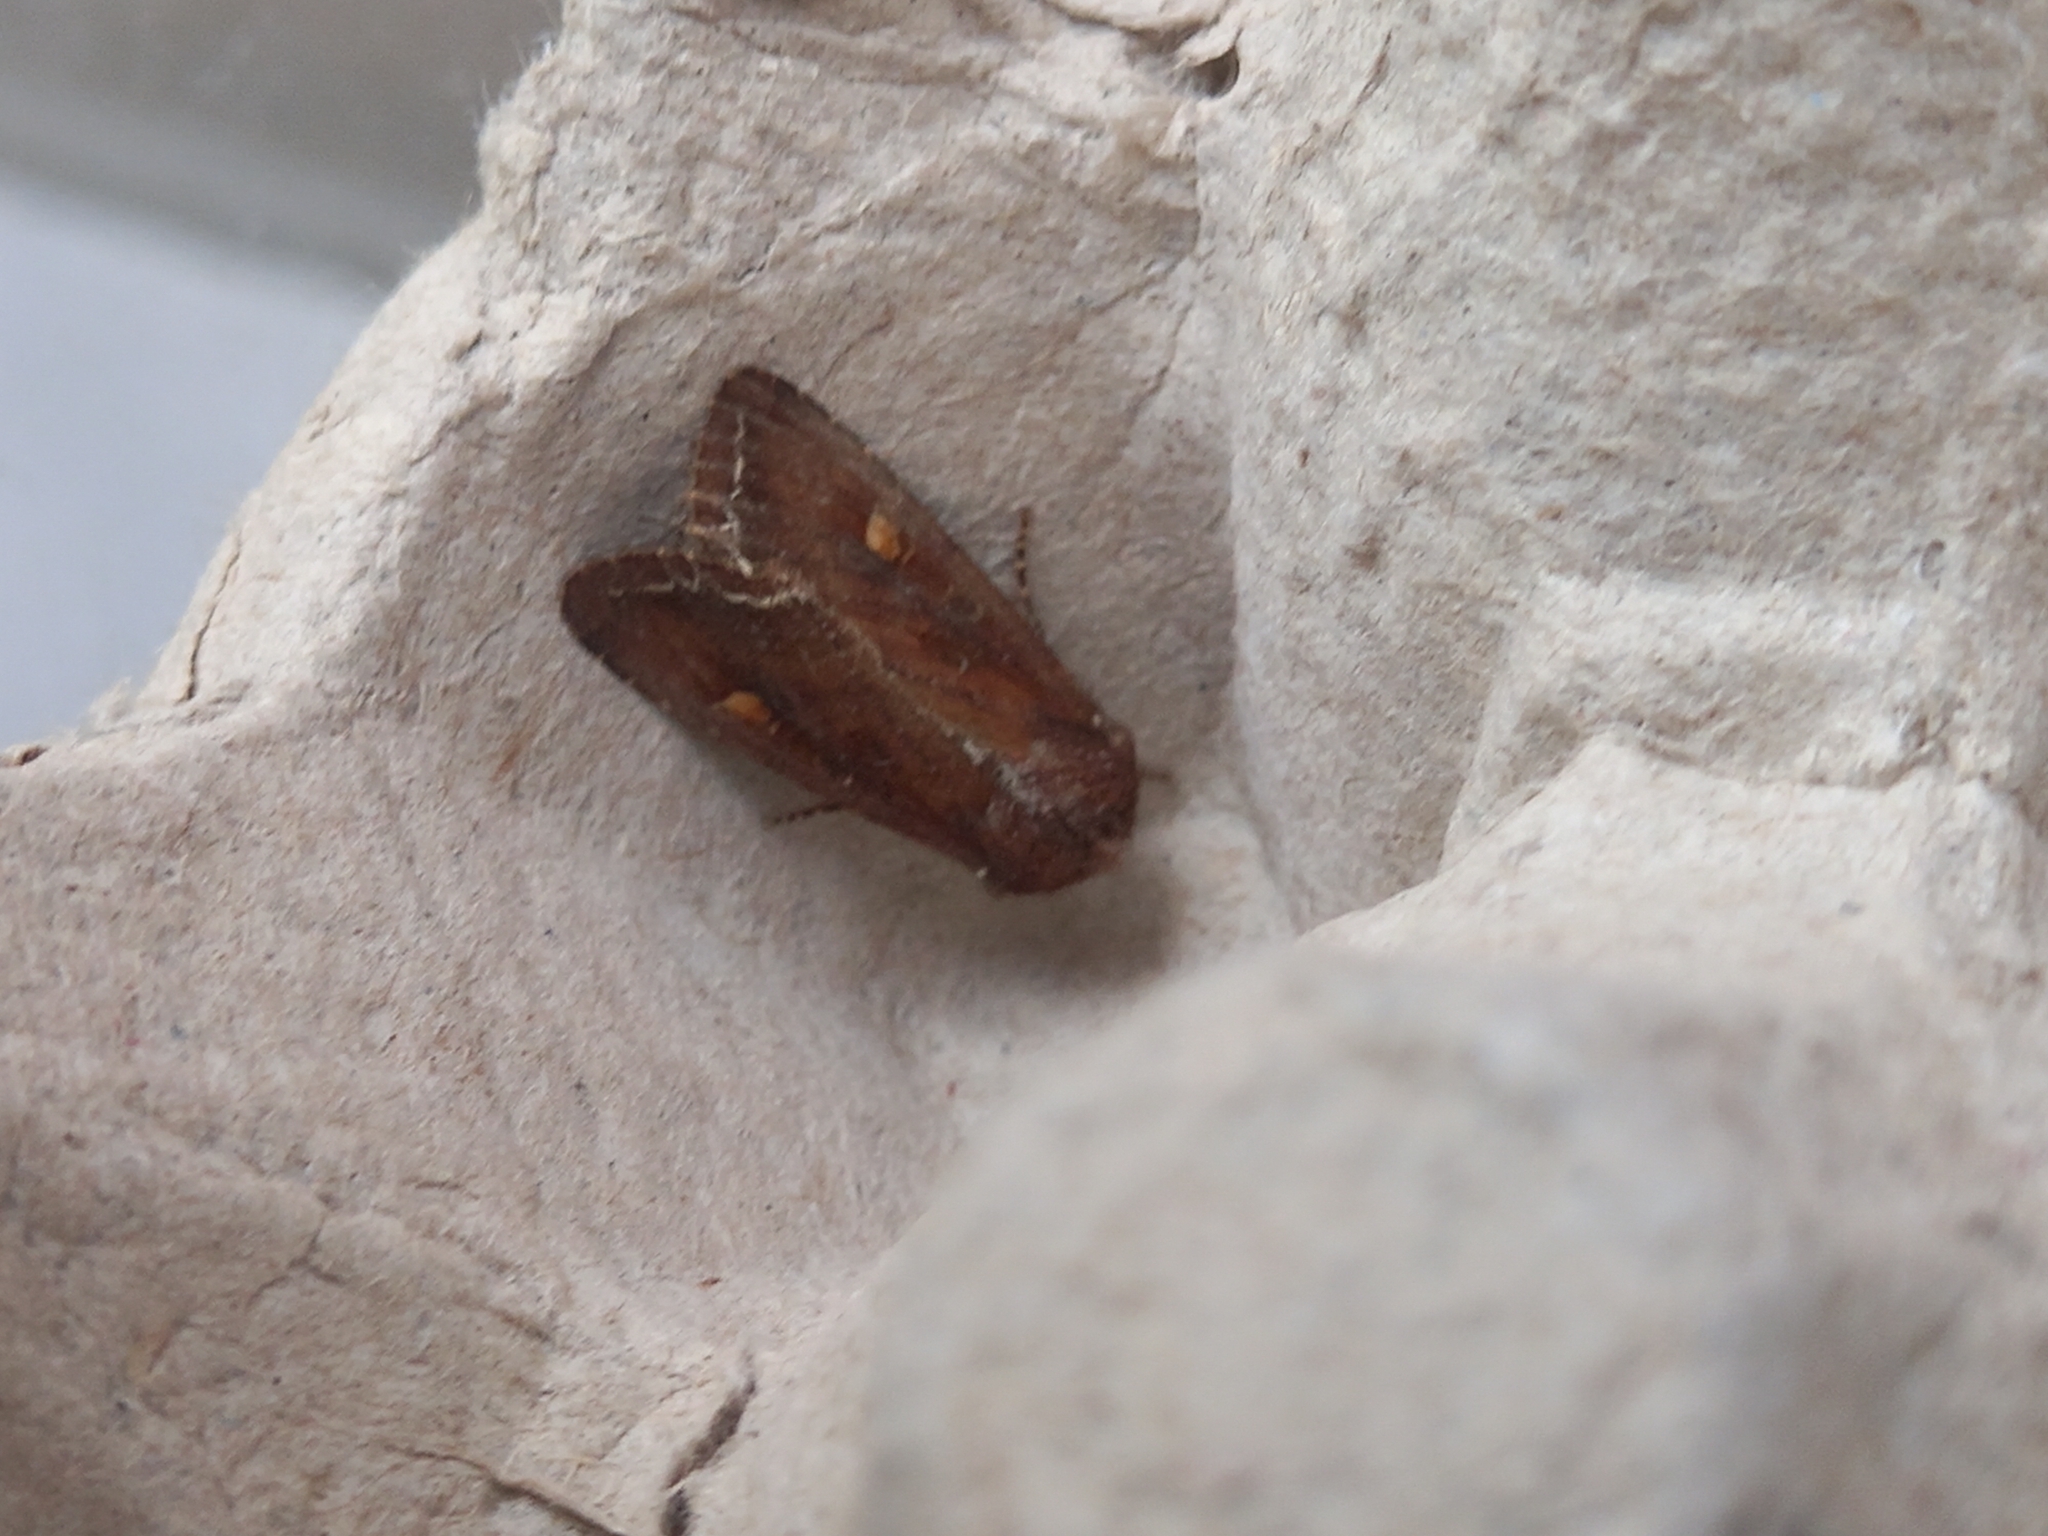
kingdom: Animalia
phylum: Arthropoda
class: Insecta
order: Lepidoptera
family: Noctuidae
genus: Lacanobia
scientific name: Lacanobia oleracea
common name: Bright-line brown-eye
